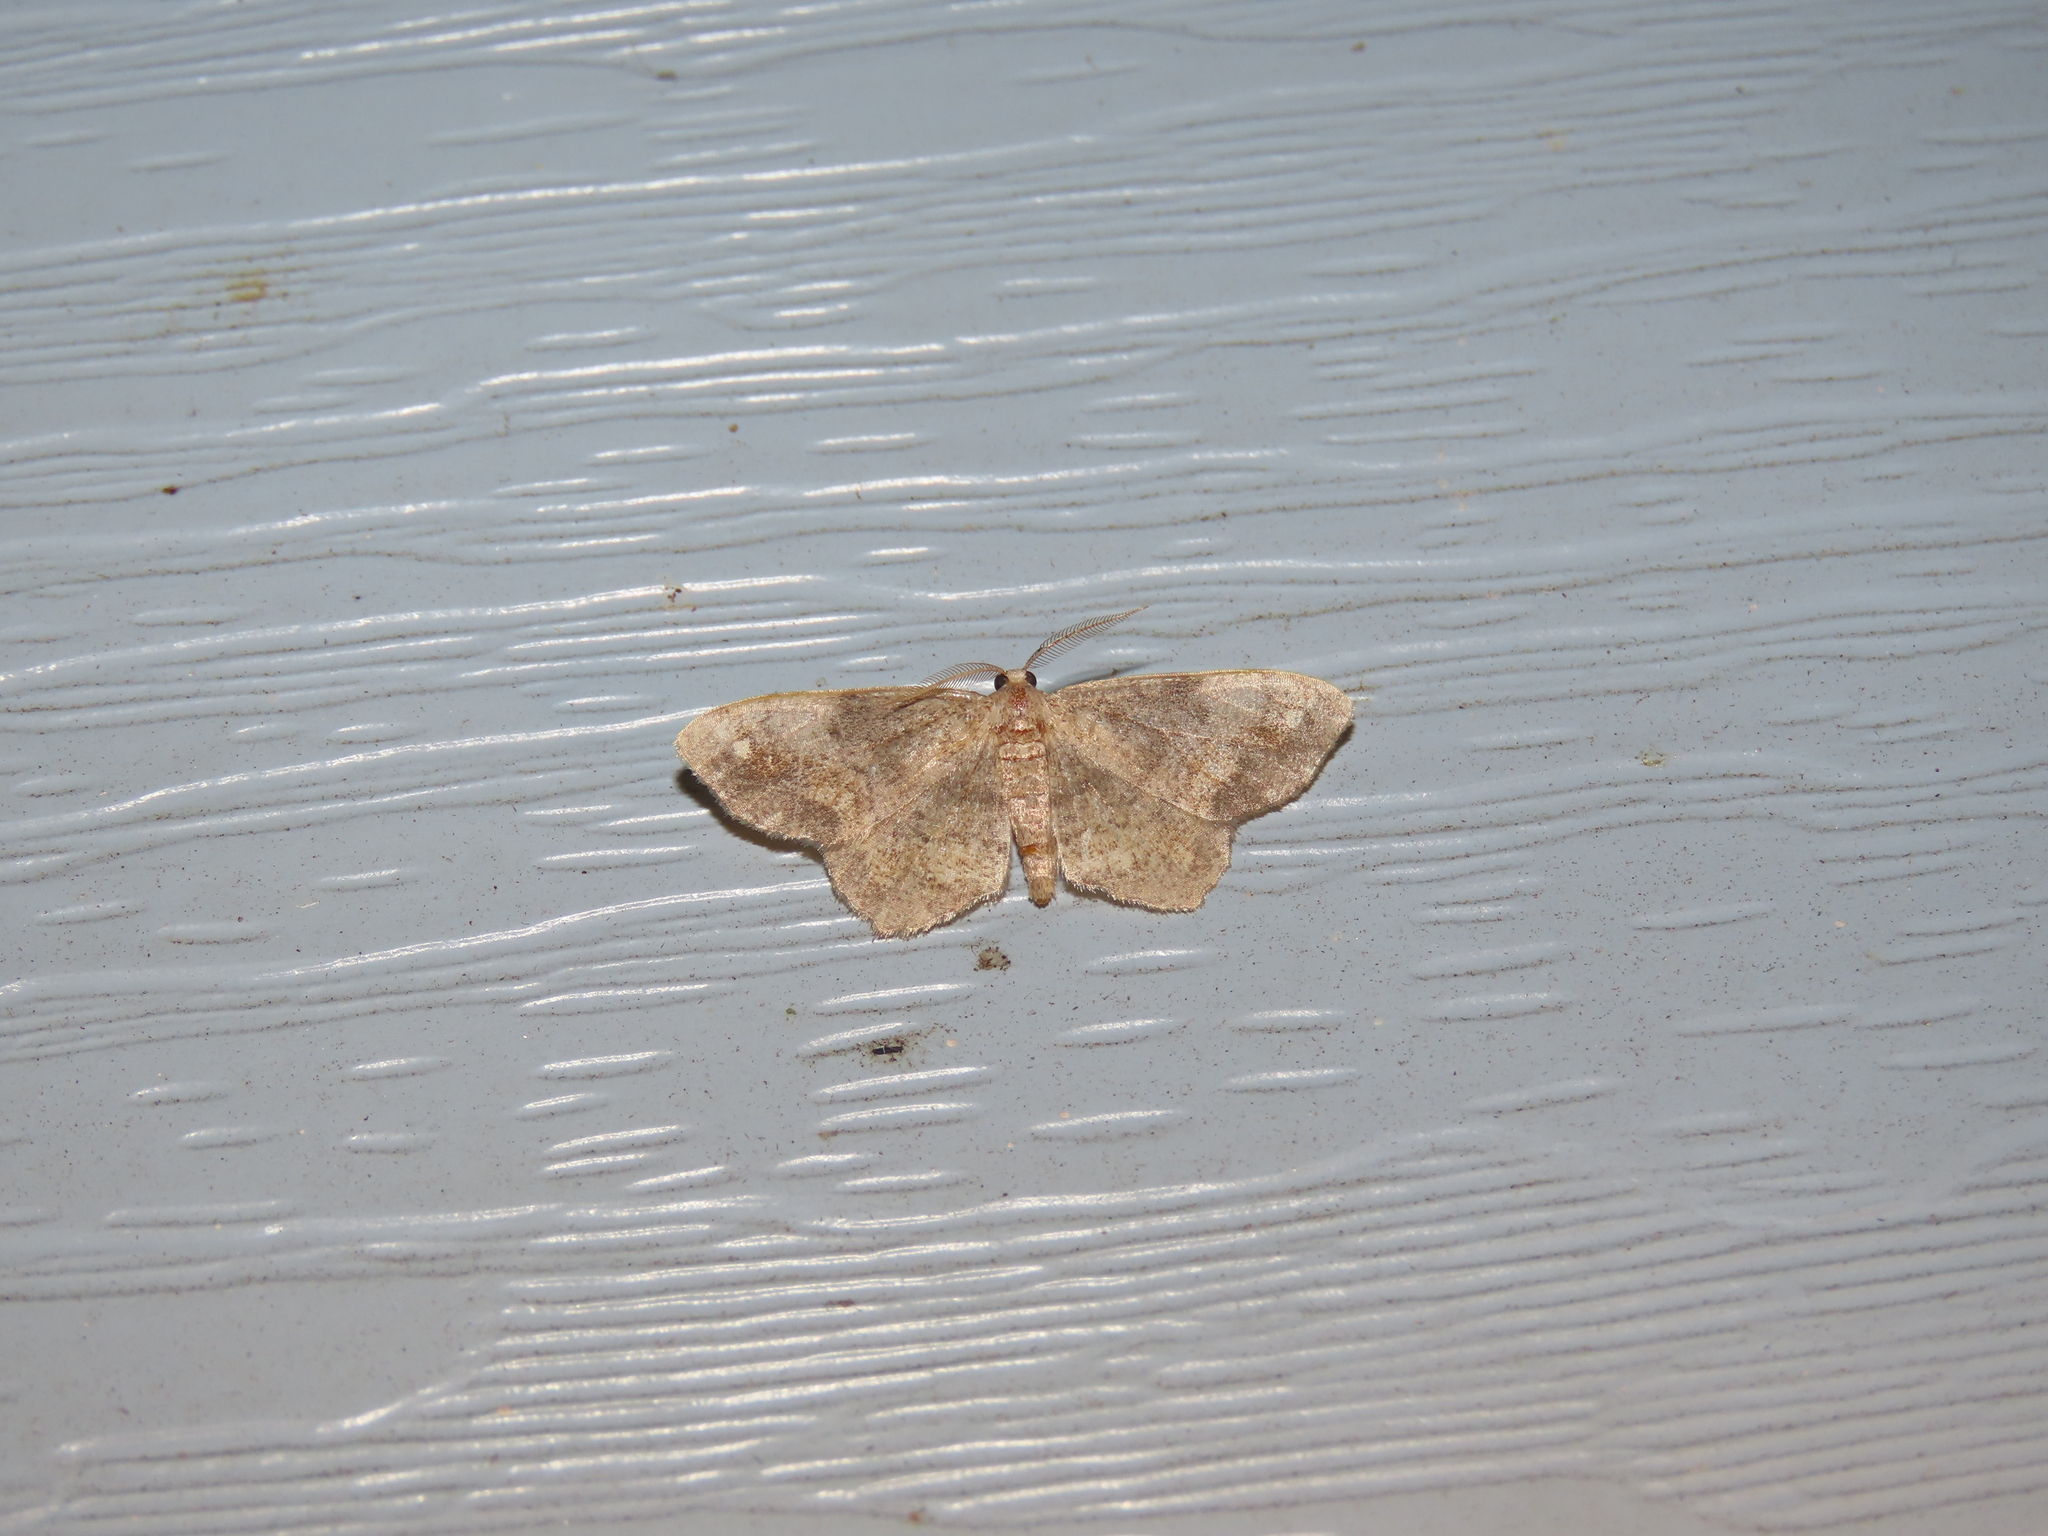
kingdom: Animalia
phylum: Arthropoda
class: Insecta
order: Lepidoptera
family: Geometridae
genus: Hypagyrtis
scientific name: Hypagyrtis unipunctata
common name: One-spotted variant
